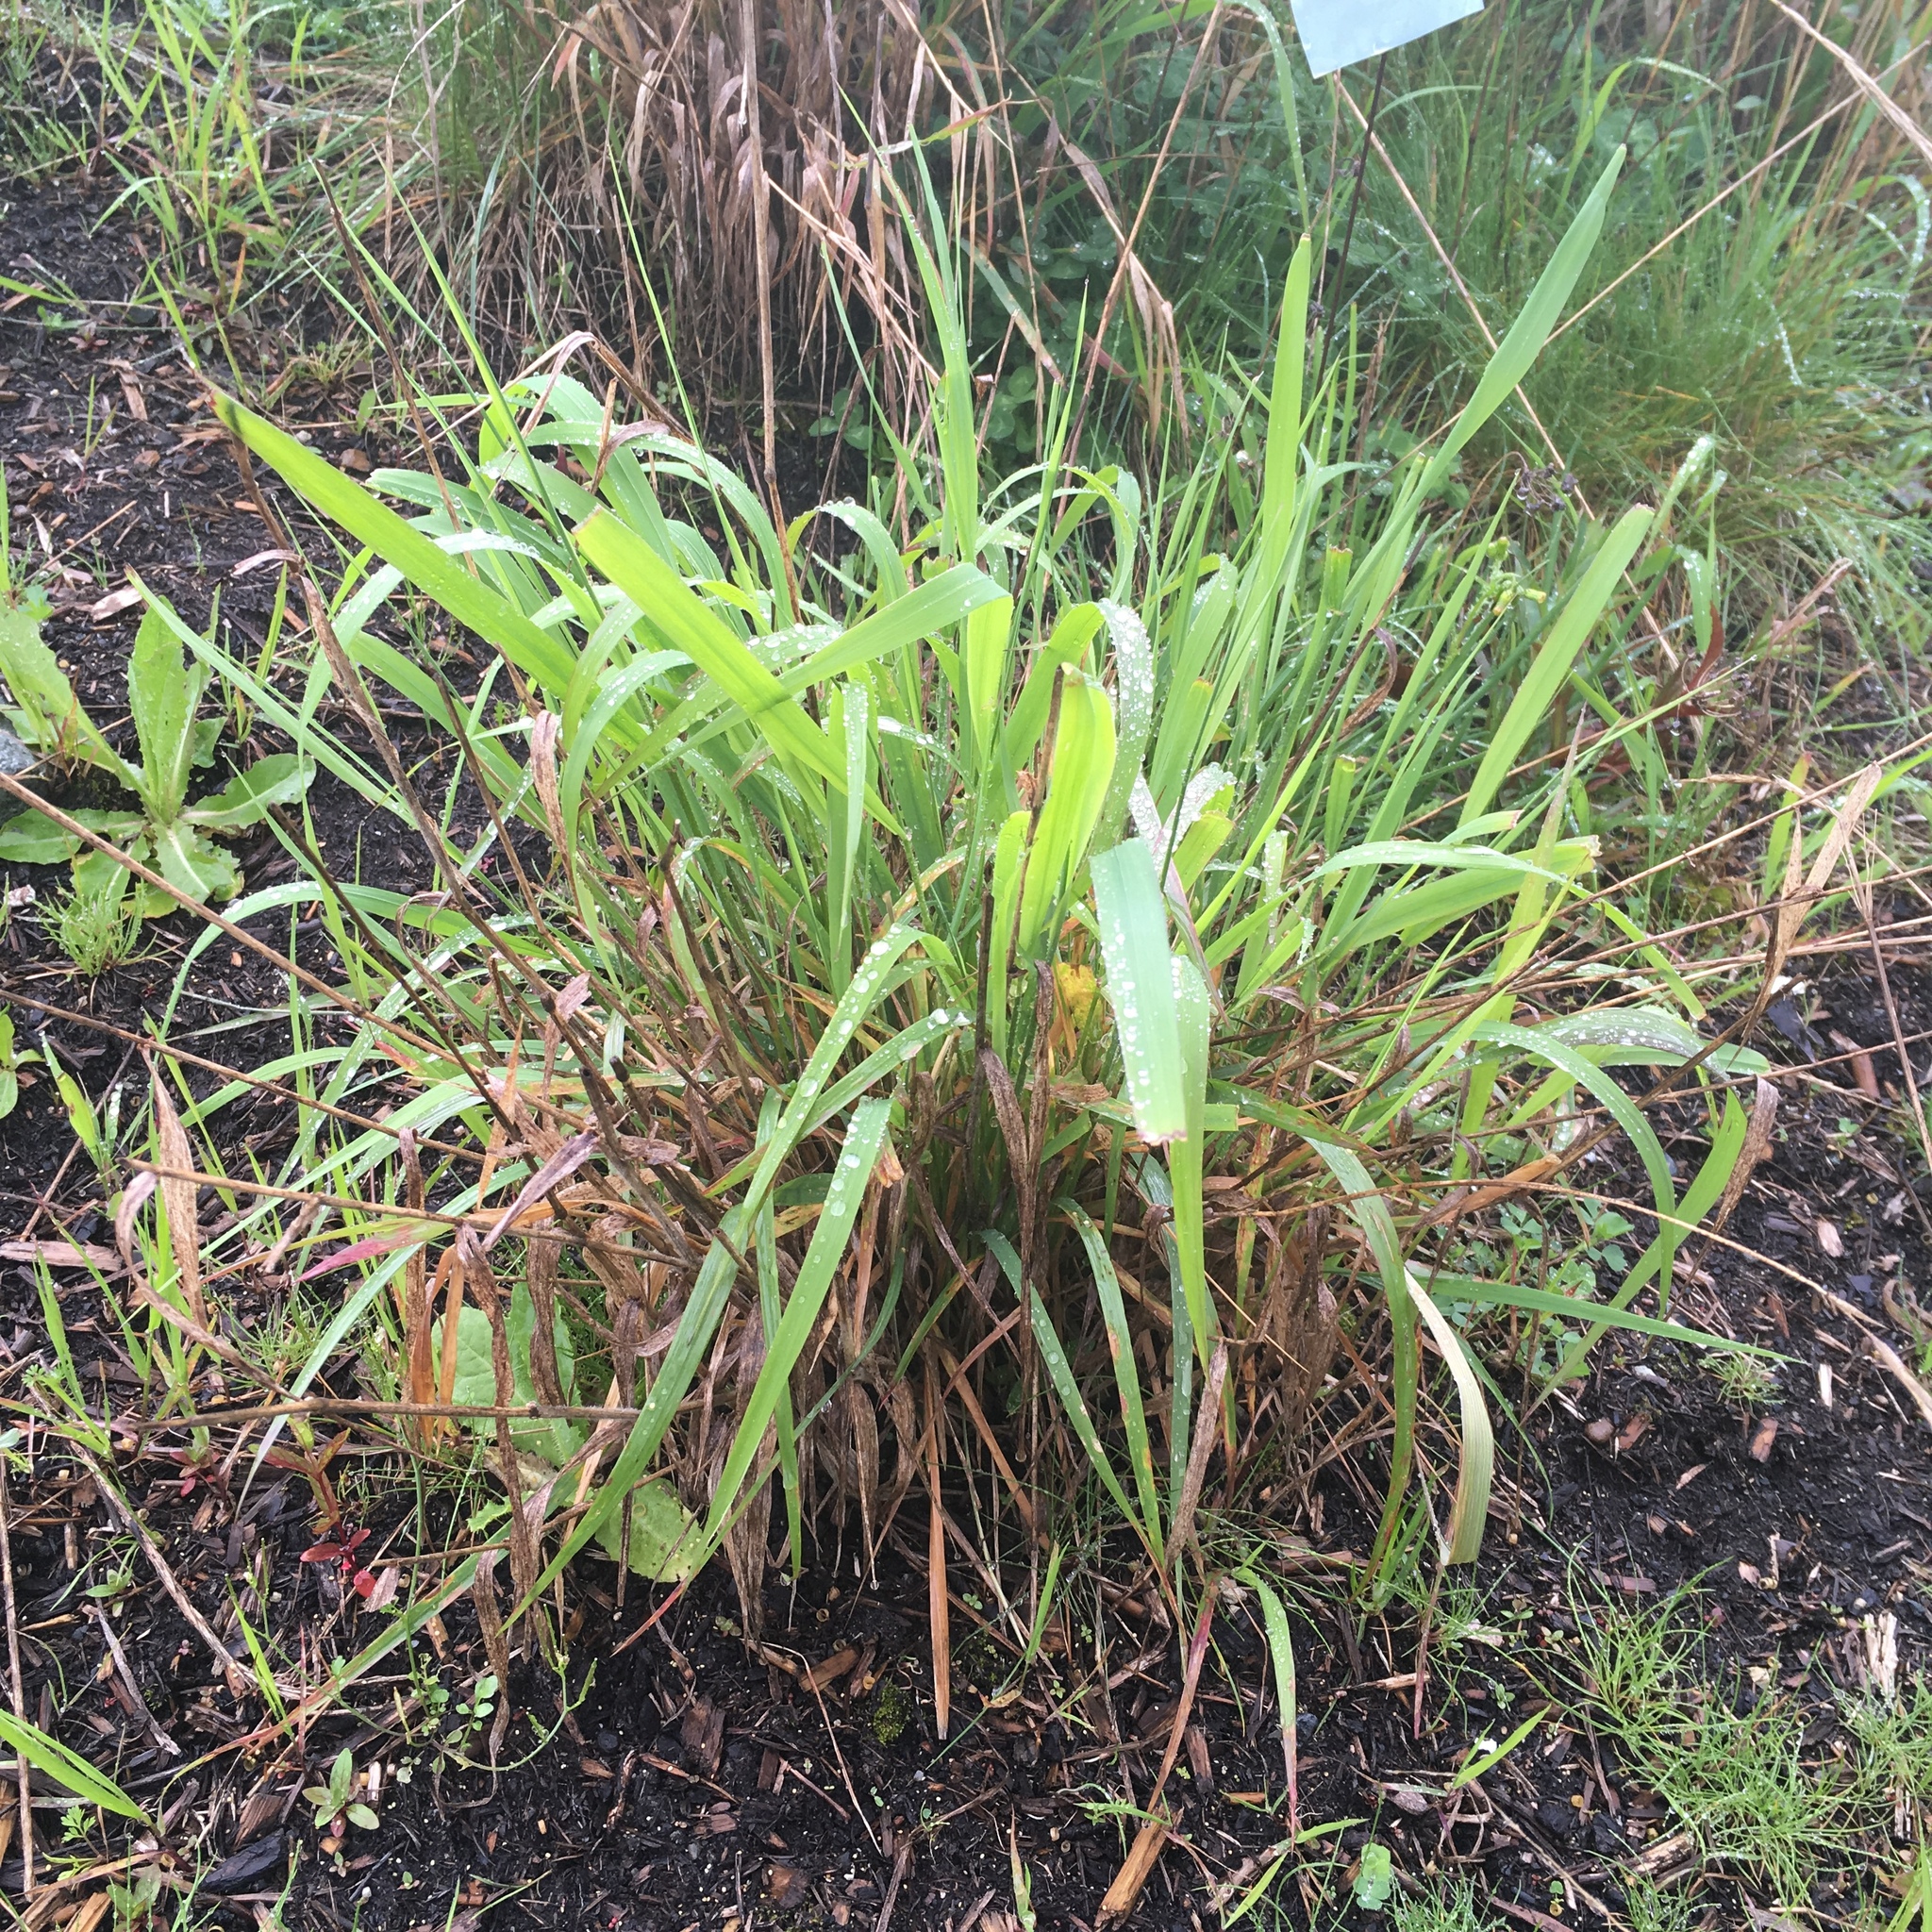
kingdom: Plantae
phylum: Tracheophyta
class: Liliopsida
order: Poales
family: Poaceae
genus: Elymus
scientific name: Elymus glaucus
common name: Blue wild rye
